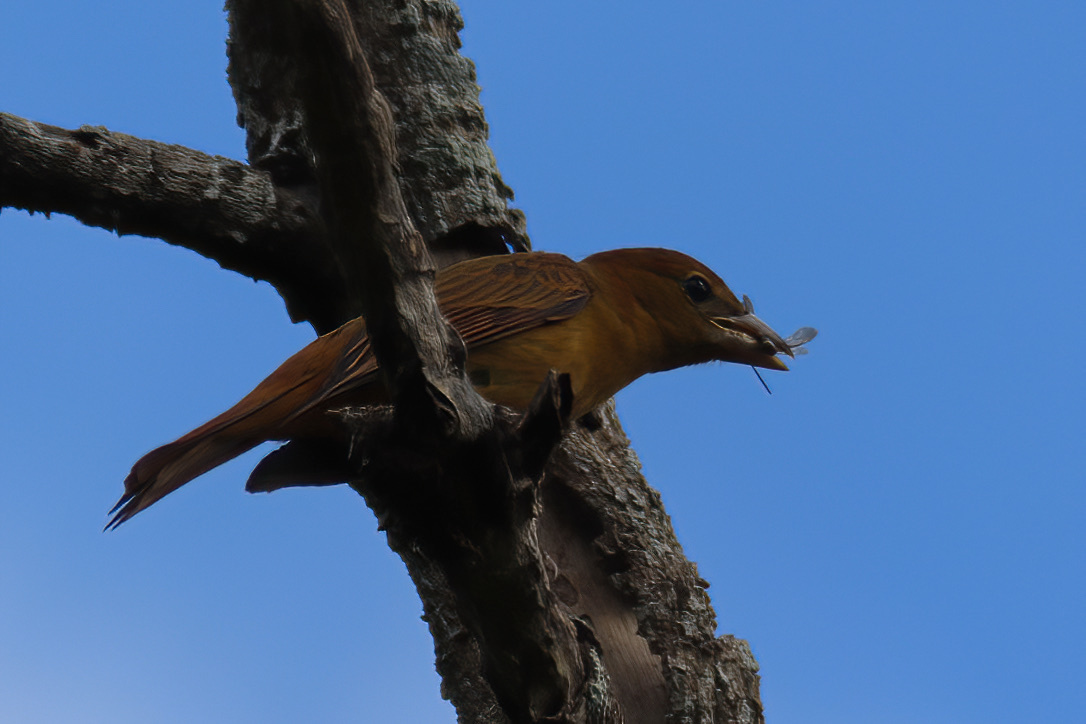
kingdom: Animalia
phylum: Chordata
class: Aves
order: Passeriformes
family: Cardinalidae
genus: Piranga
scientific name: Piranga rubra
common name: Summer tanager
